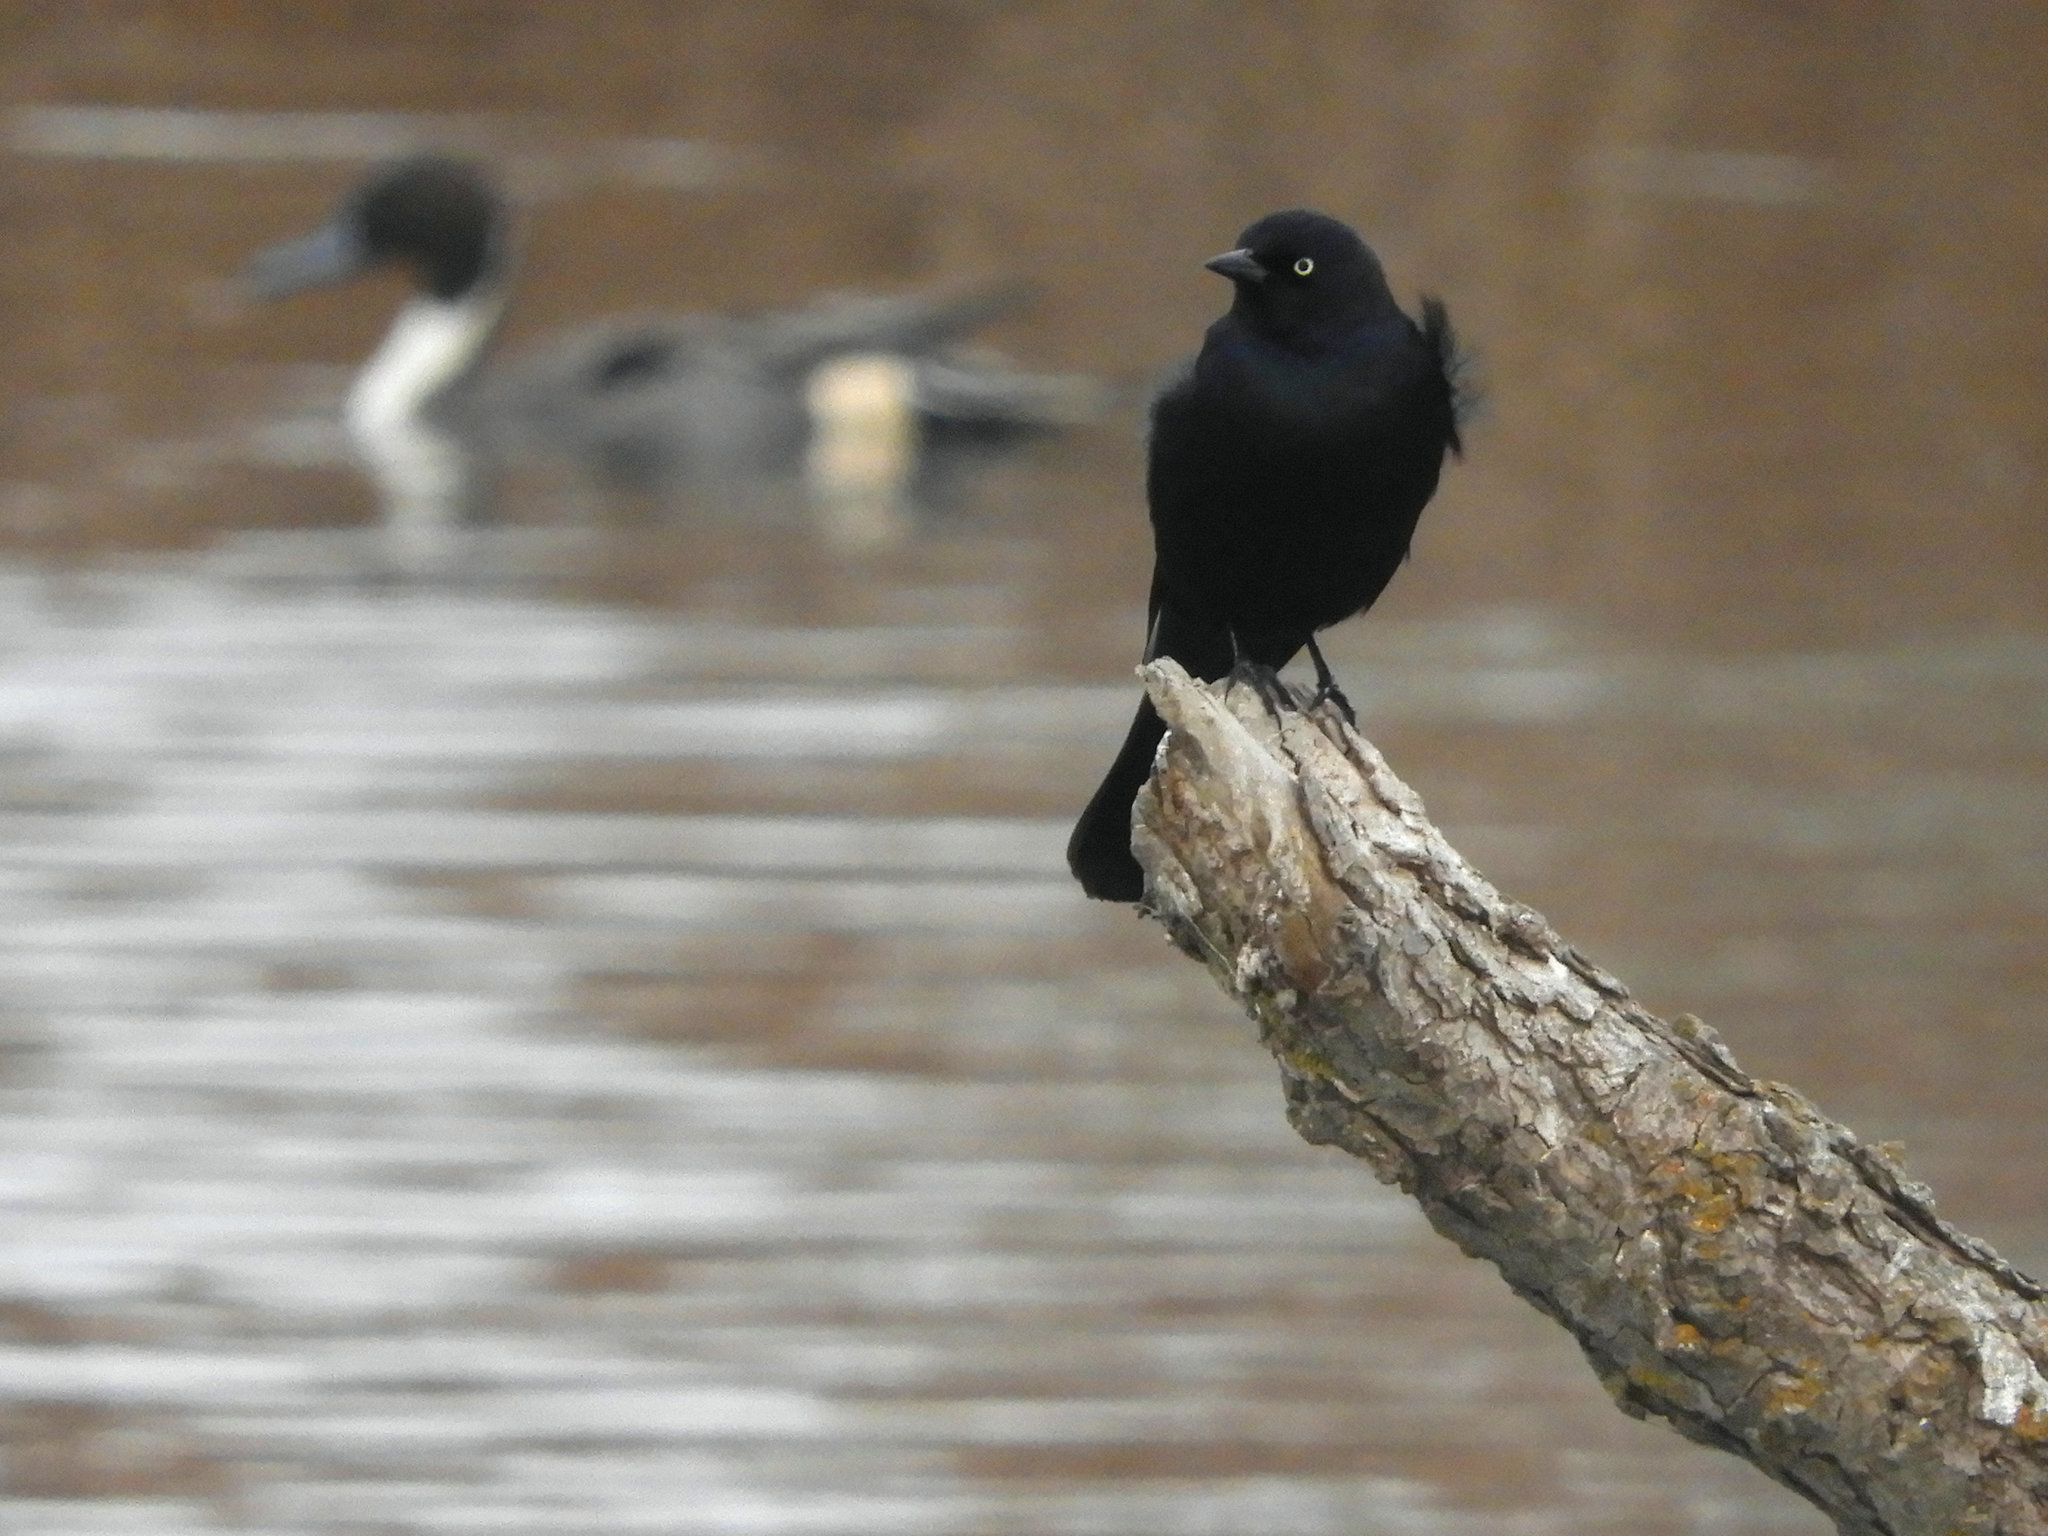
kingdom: Animalia
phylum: Chordata
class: Aves
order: Passeriformes
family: Icteridae
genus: Euphagus
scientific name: Euphagus cyanocephalus
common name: Brewer's blackbird
